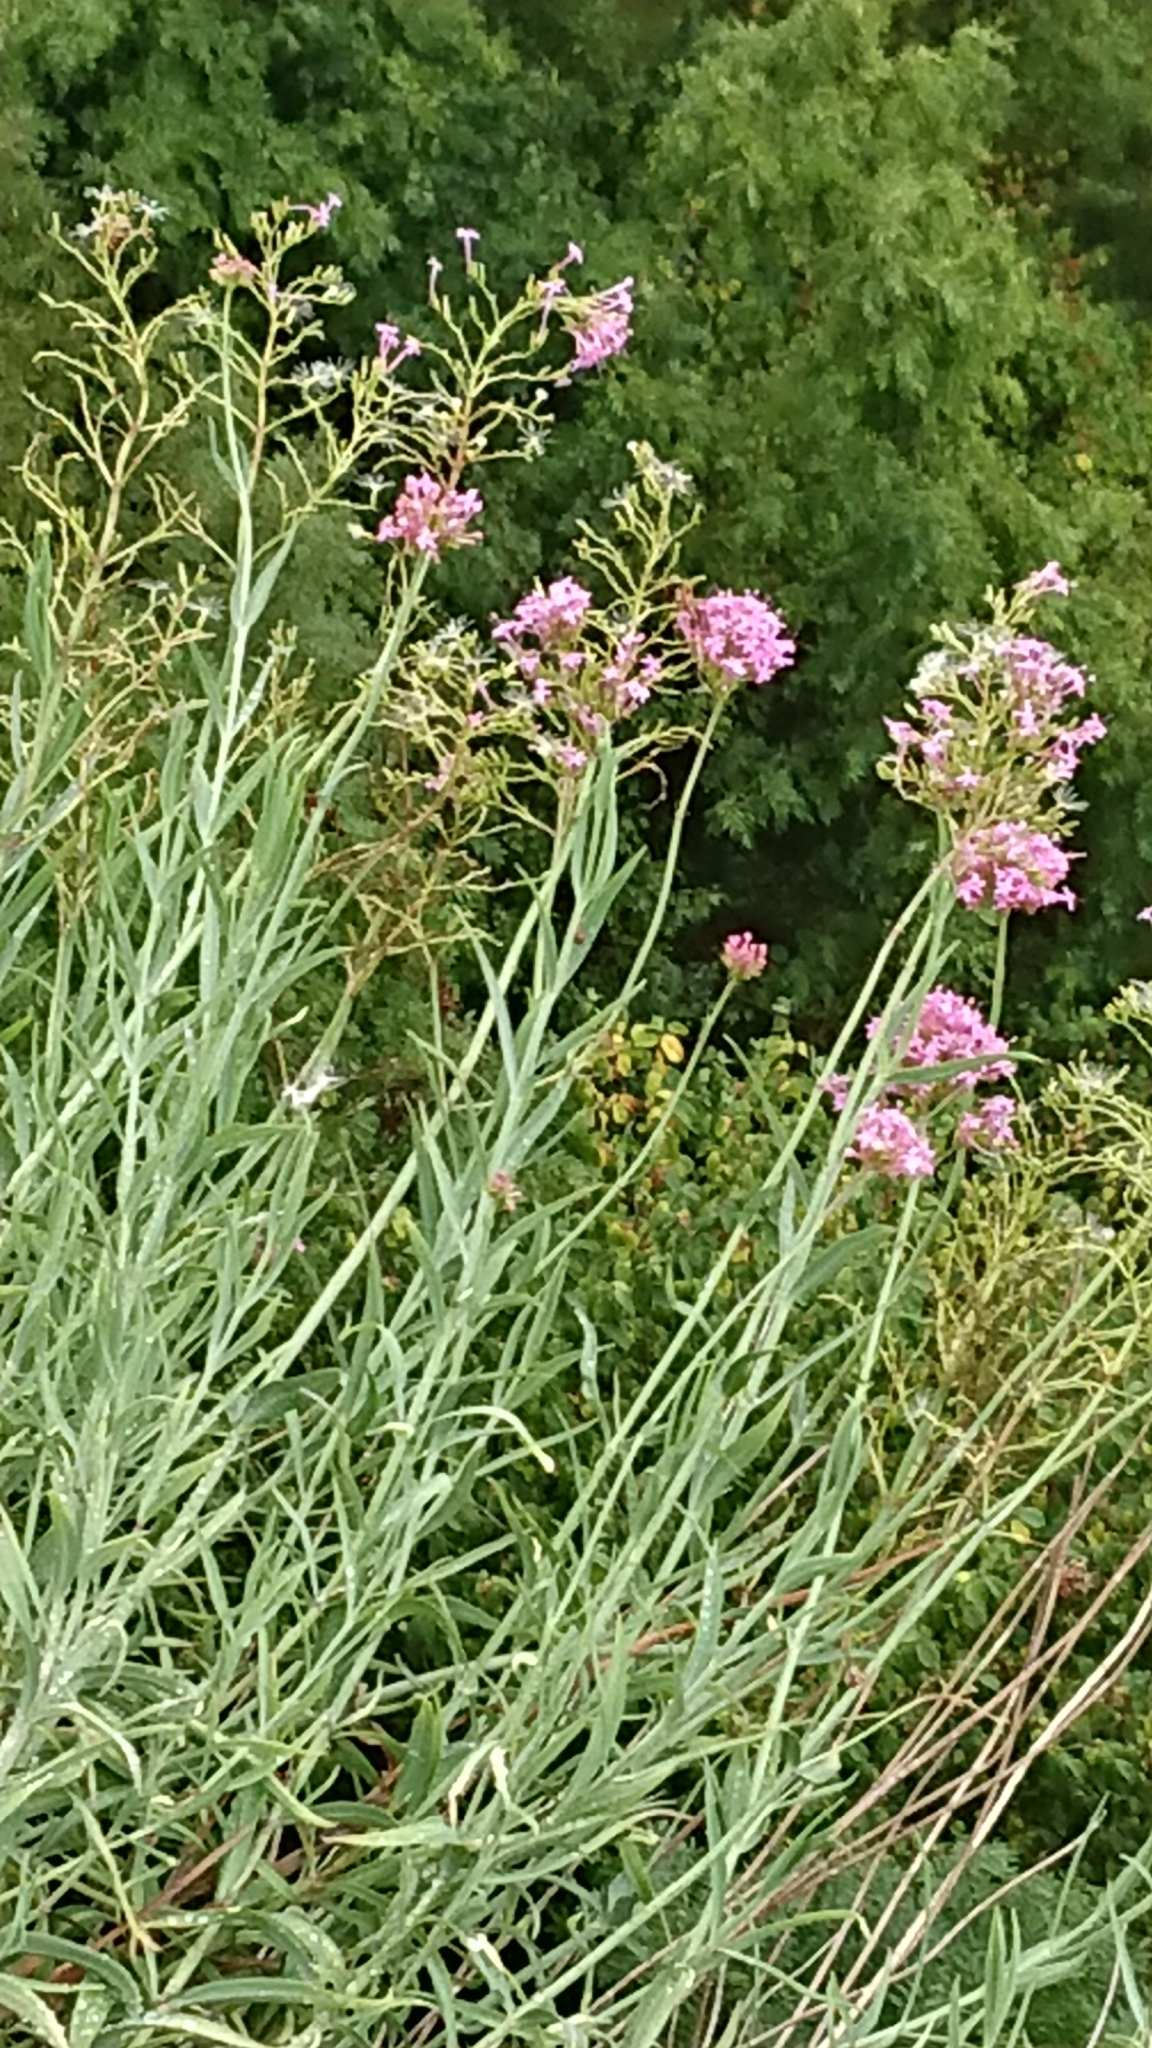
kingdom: Plantae
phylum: Tracheophyta
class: Magnoliopsida
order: Dipsacales
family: Caprifoliaceae
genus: Centranthus
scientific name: Centranthus lecoqii
